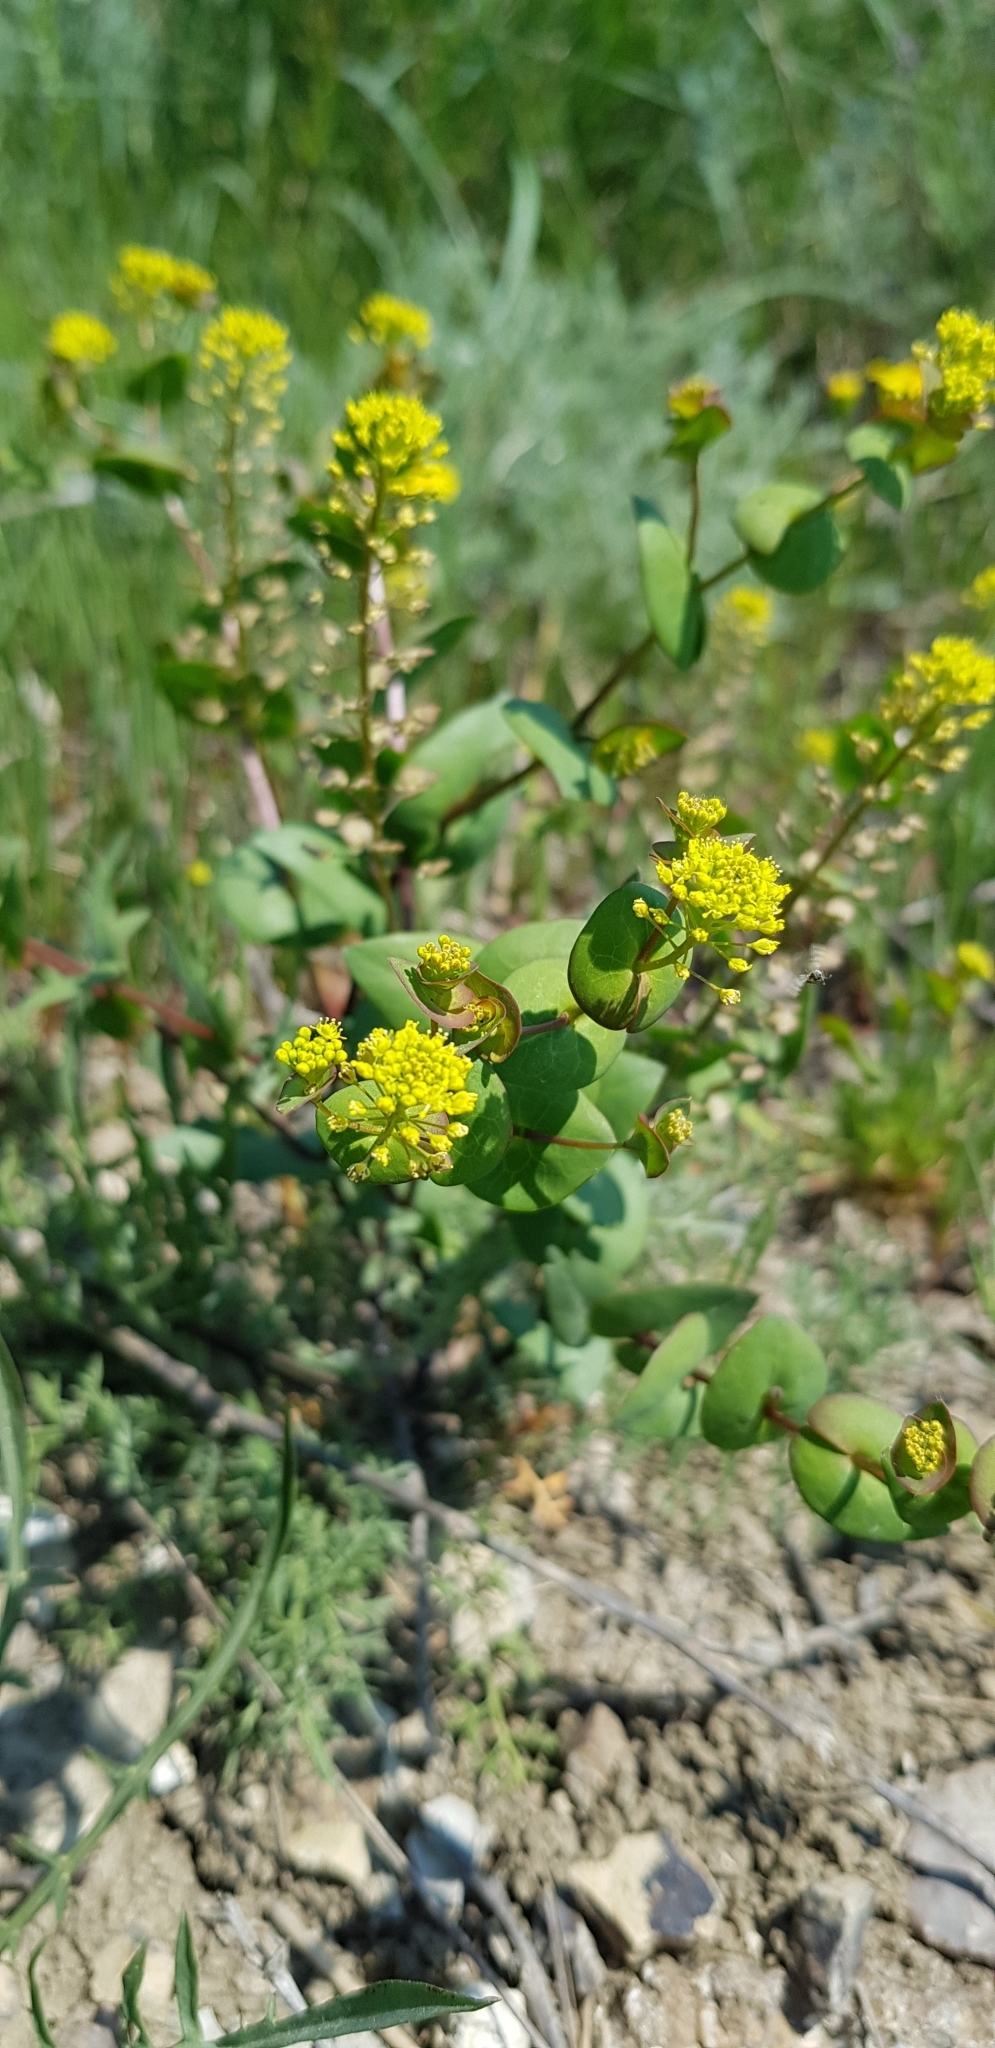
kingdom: Plantae
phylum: Tracheophyta
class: Magnoliopsida
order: Brassicales
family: Brassicaceae
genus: Lepidium
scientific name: Lepidium perfoliatum
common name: Perfoliate pepperwort
